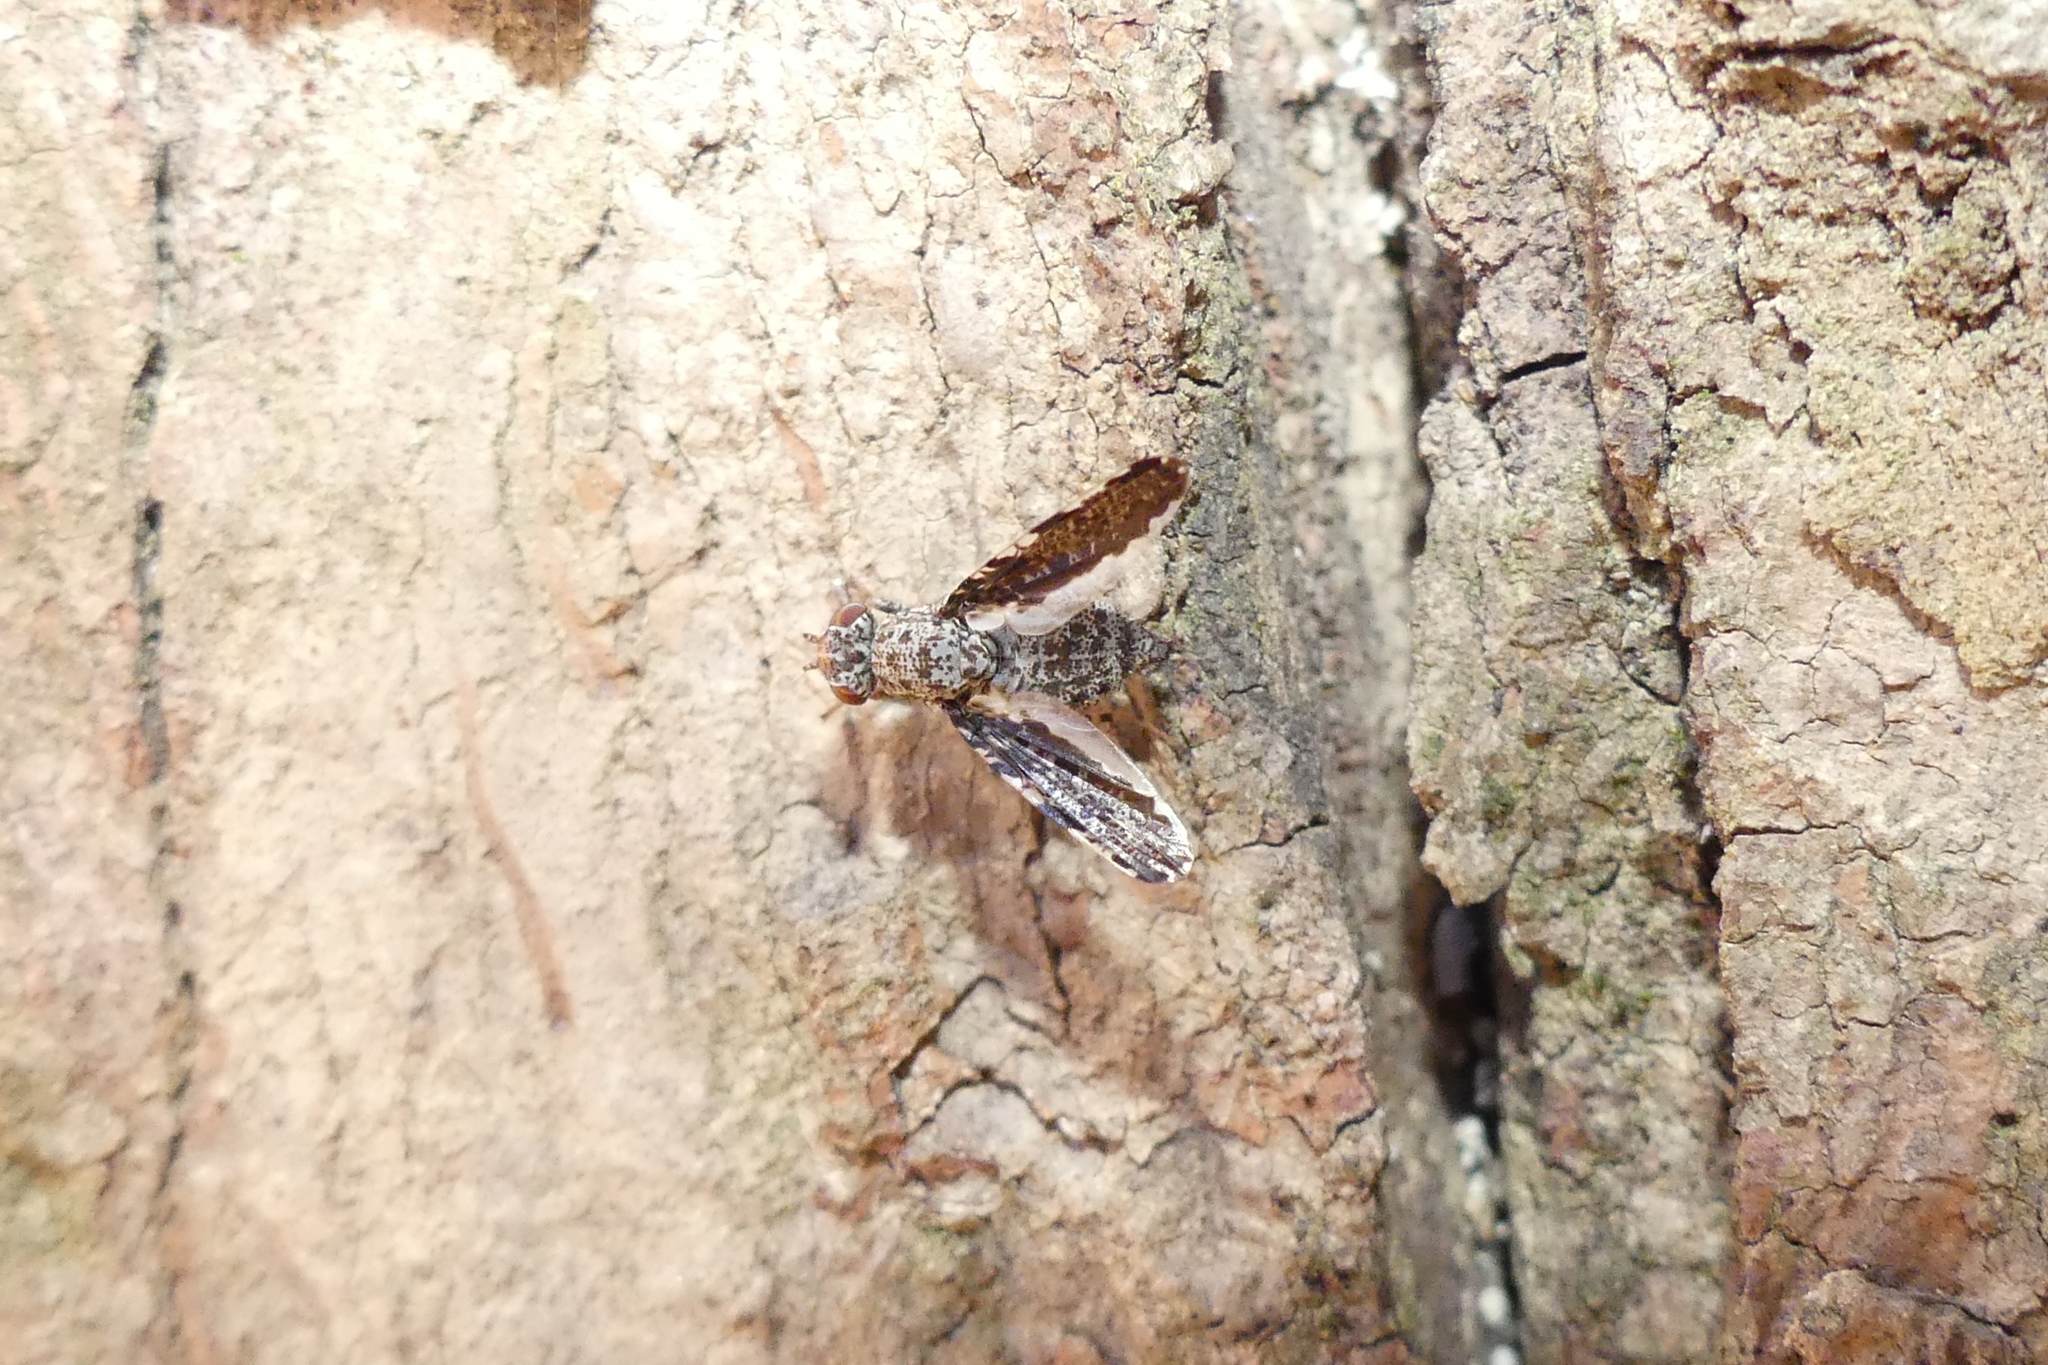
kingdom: Animalia
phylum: Arthropoda
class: Insecta
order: Diptera
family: Ulidiidae
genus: Callopistromyia
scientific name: Callopistromyia strigula
